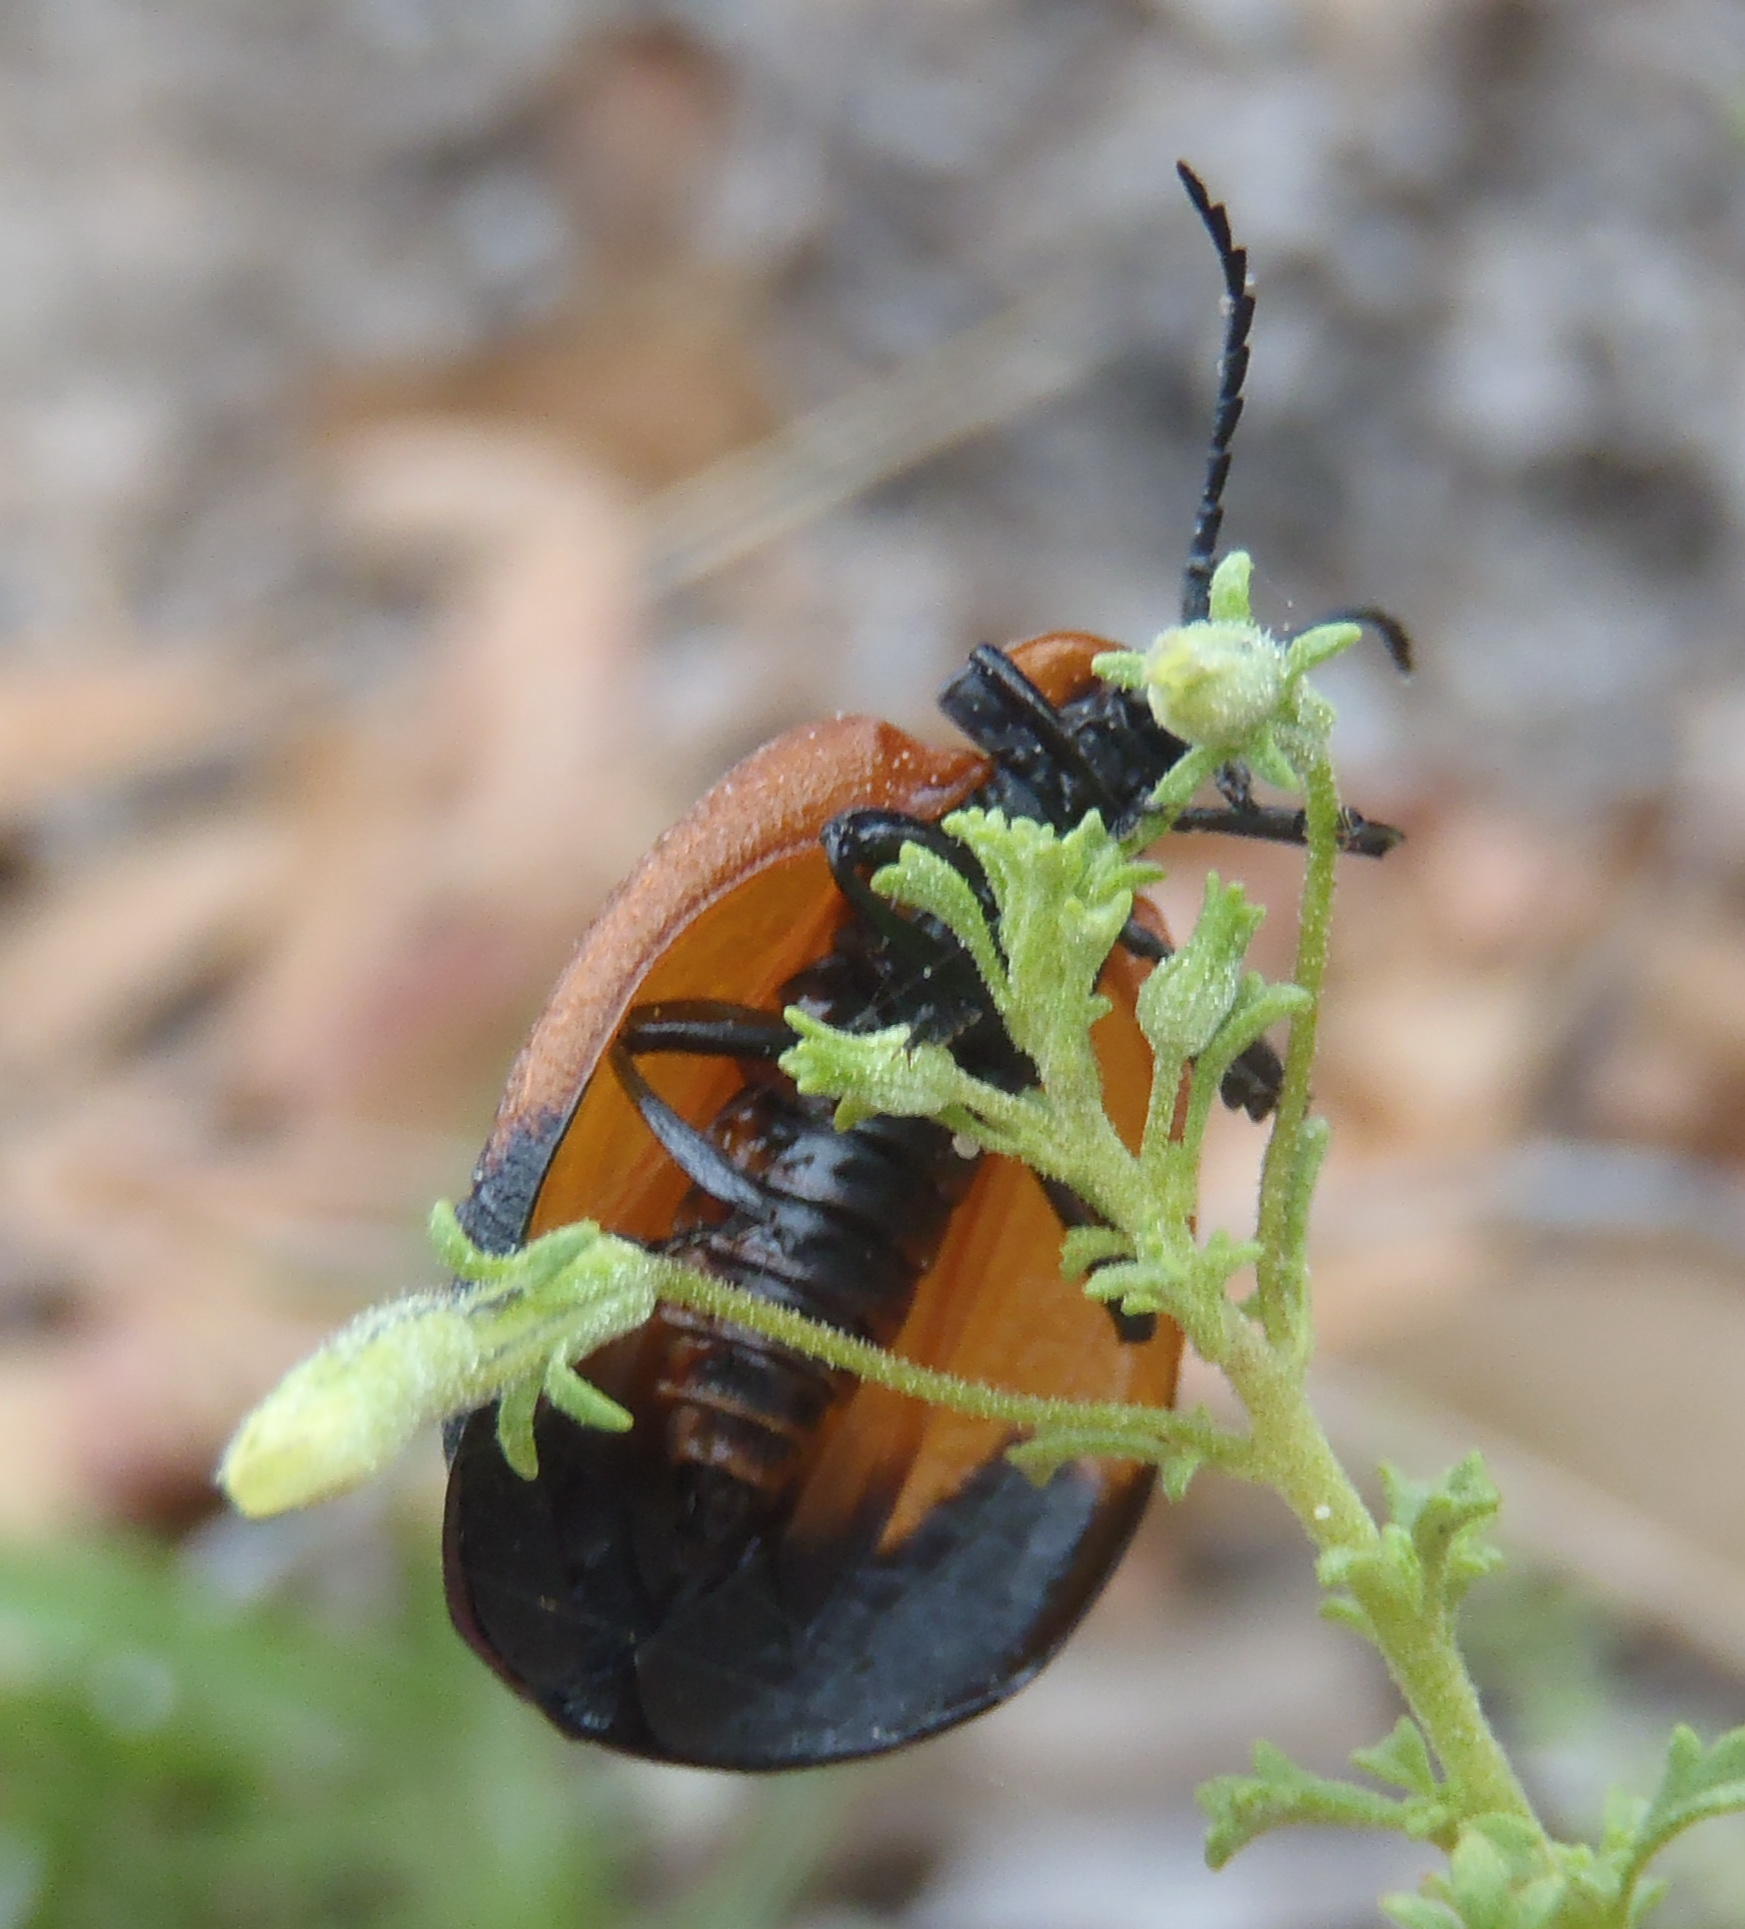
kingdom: Animalia
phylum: Arthropoda
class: Insecta
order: Coleoptera
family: Lycidae
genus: Lycus
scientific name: Lycus
